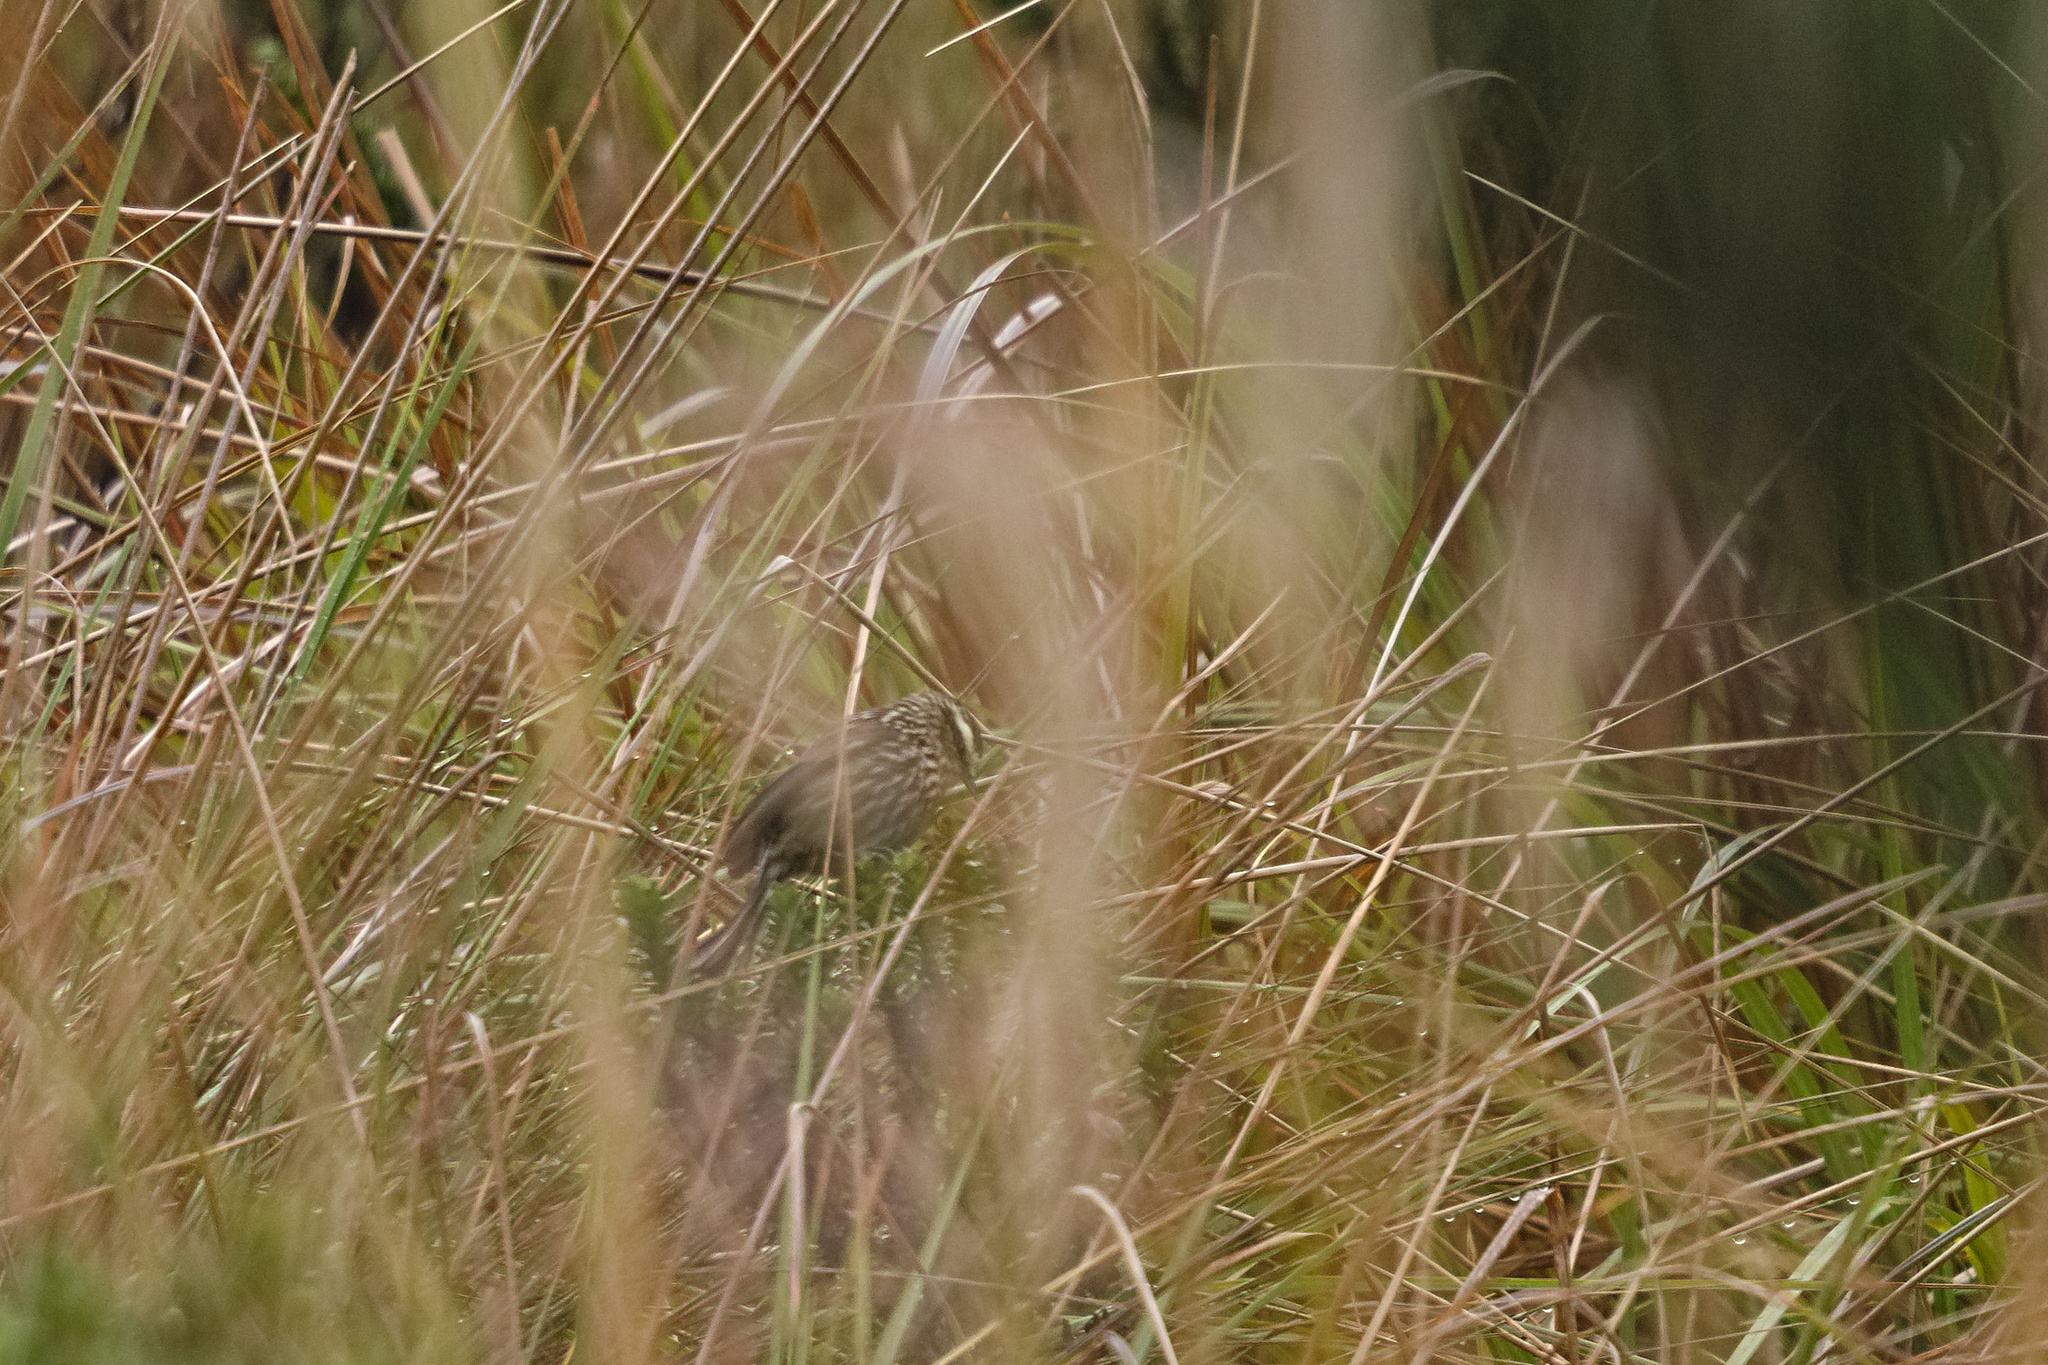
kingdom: Animalia
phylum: Chordata
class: Aves
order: Passeriformes
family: Furnariidae
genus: Leptasthenura
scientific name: Leptasthenura andicola
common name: Andean tit-spinetail
